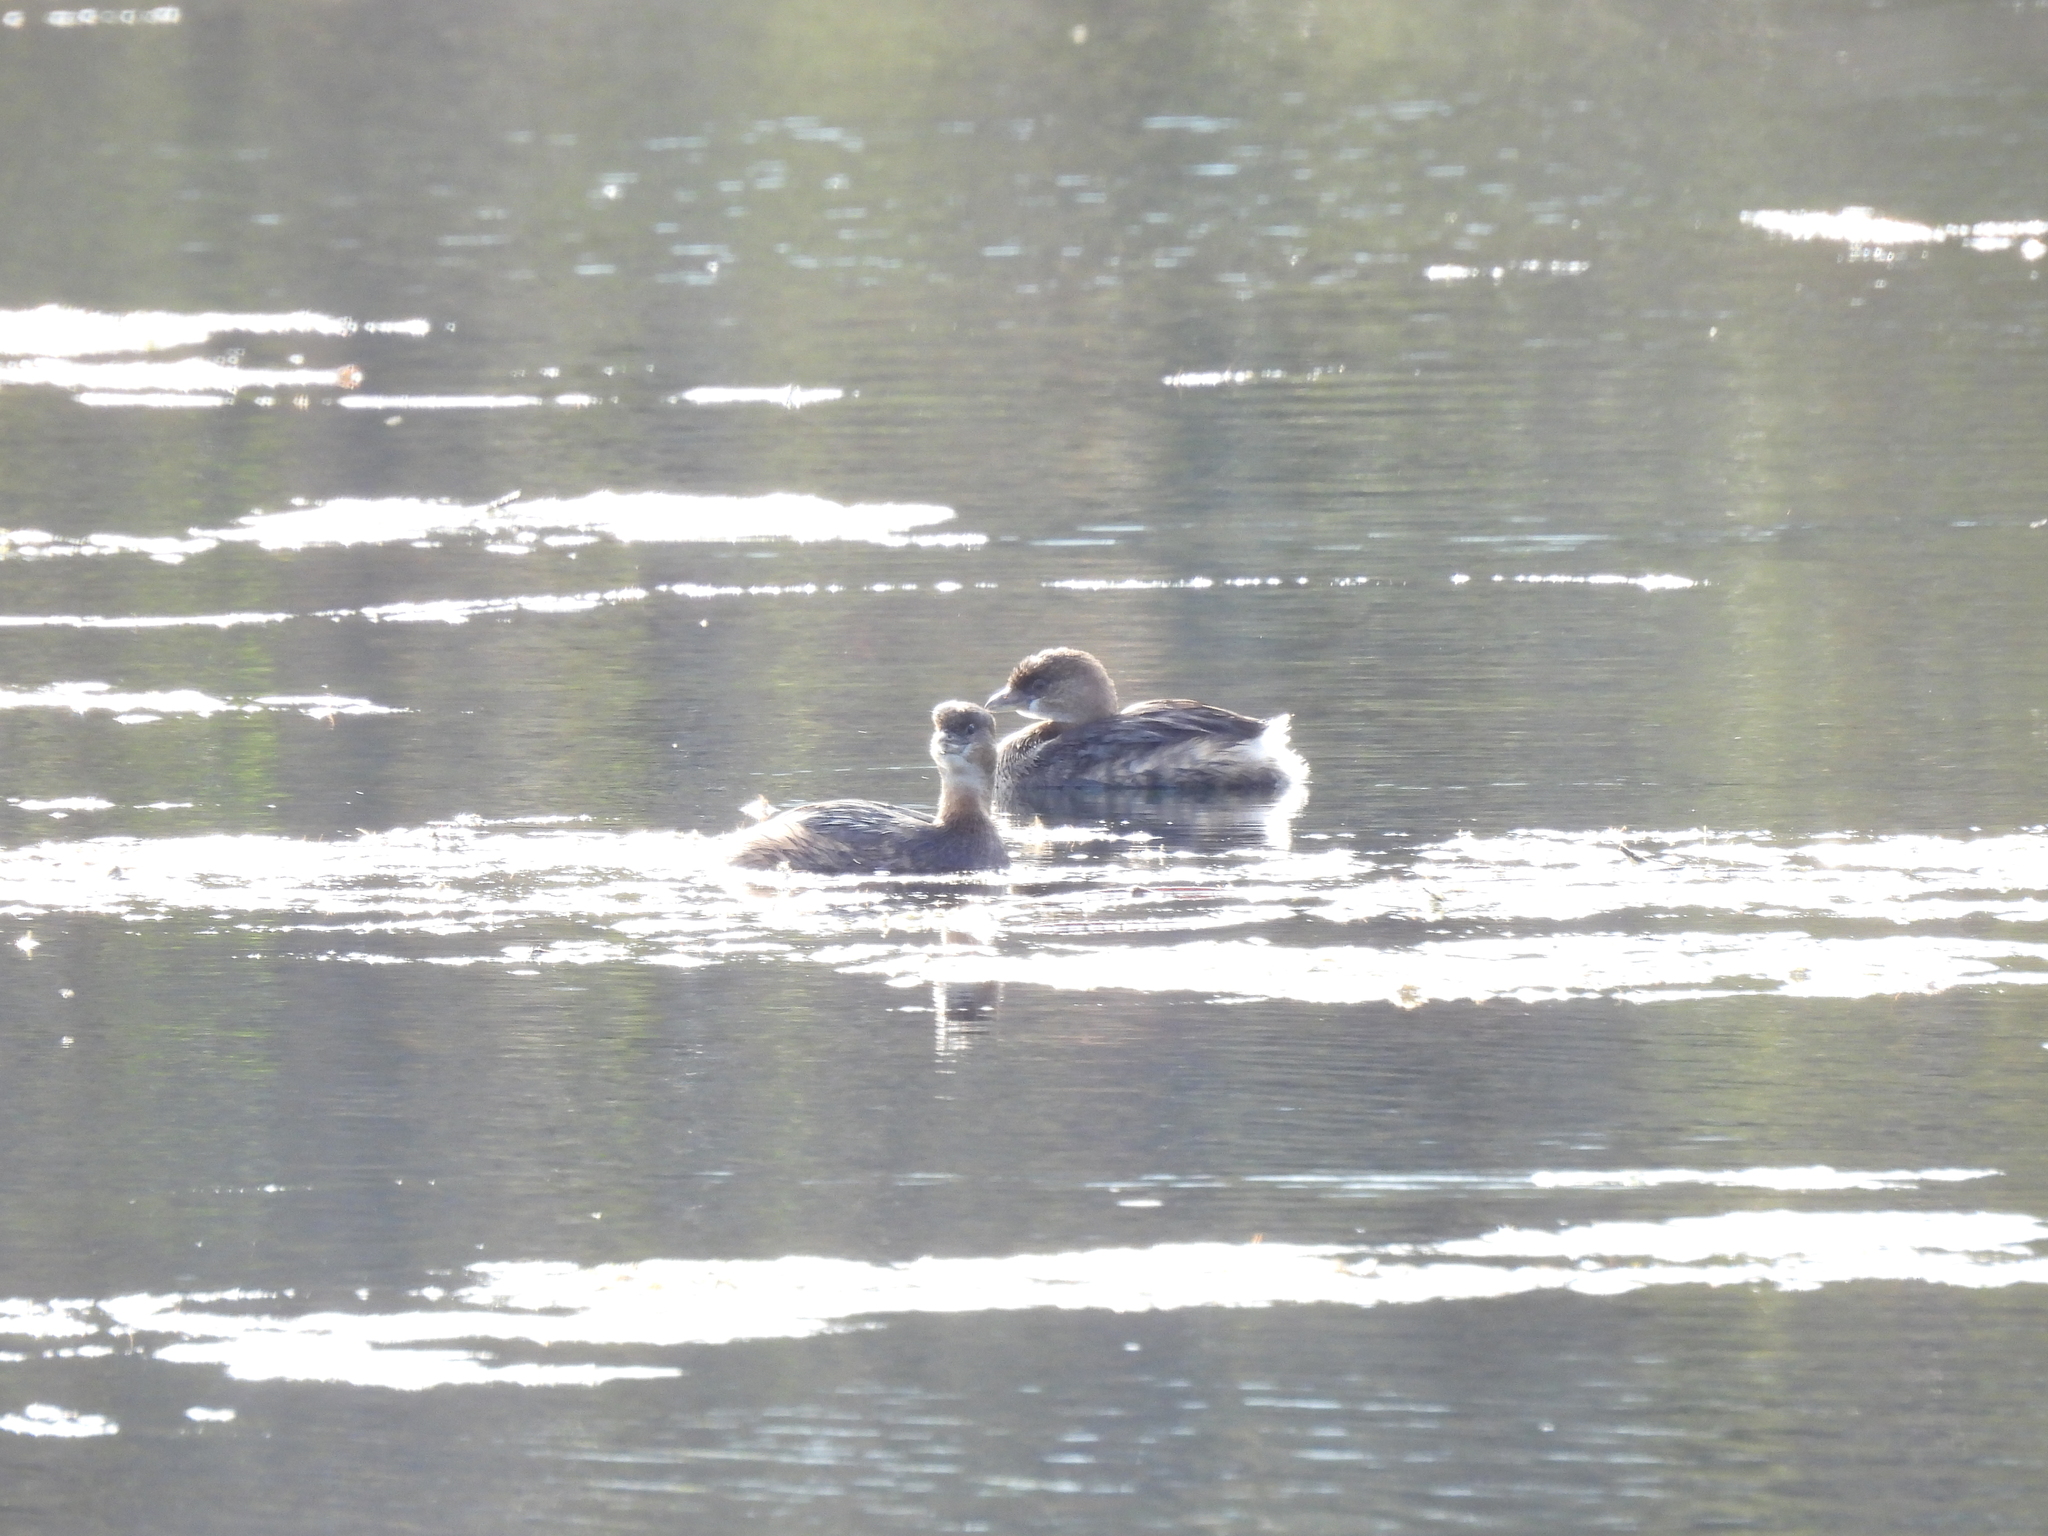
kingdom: Animalia
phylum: Chordata
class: Aves
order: Podicipediformes
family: Podicipedidae
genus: Podilymbus
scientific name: Podilymbus podiceps
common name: Pied-billed grebe
